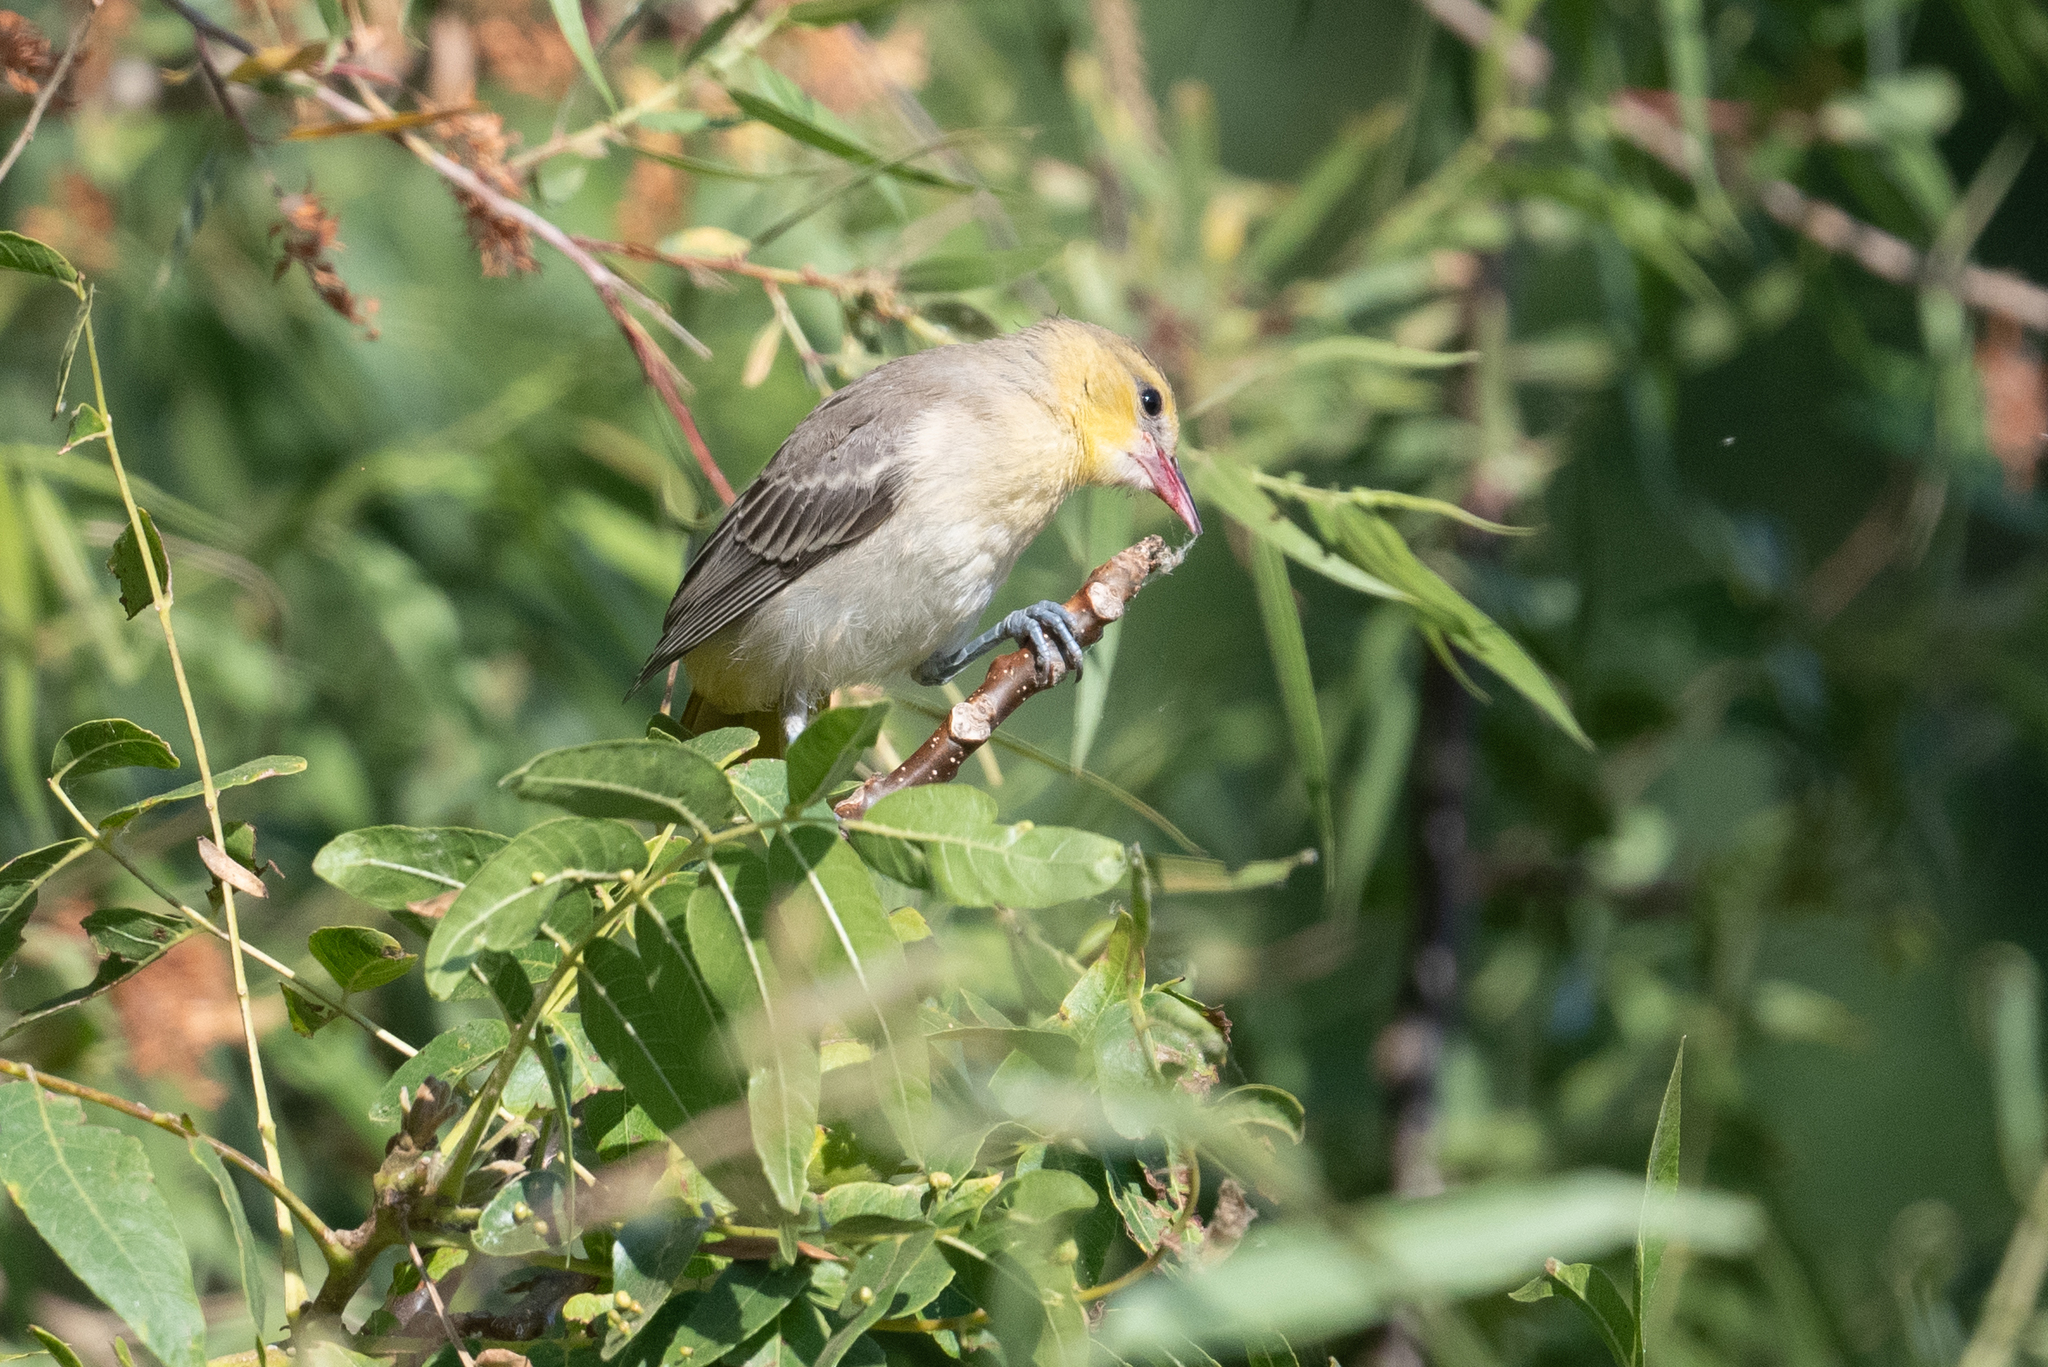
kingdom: Animalia
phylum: Chordata
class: Aves
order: Passeriformes
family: Icteridae
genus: Icterus
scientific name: Icterus bullockii
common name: Bullock's oriole
